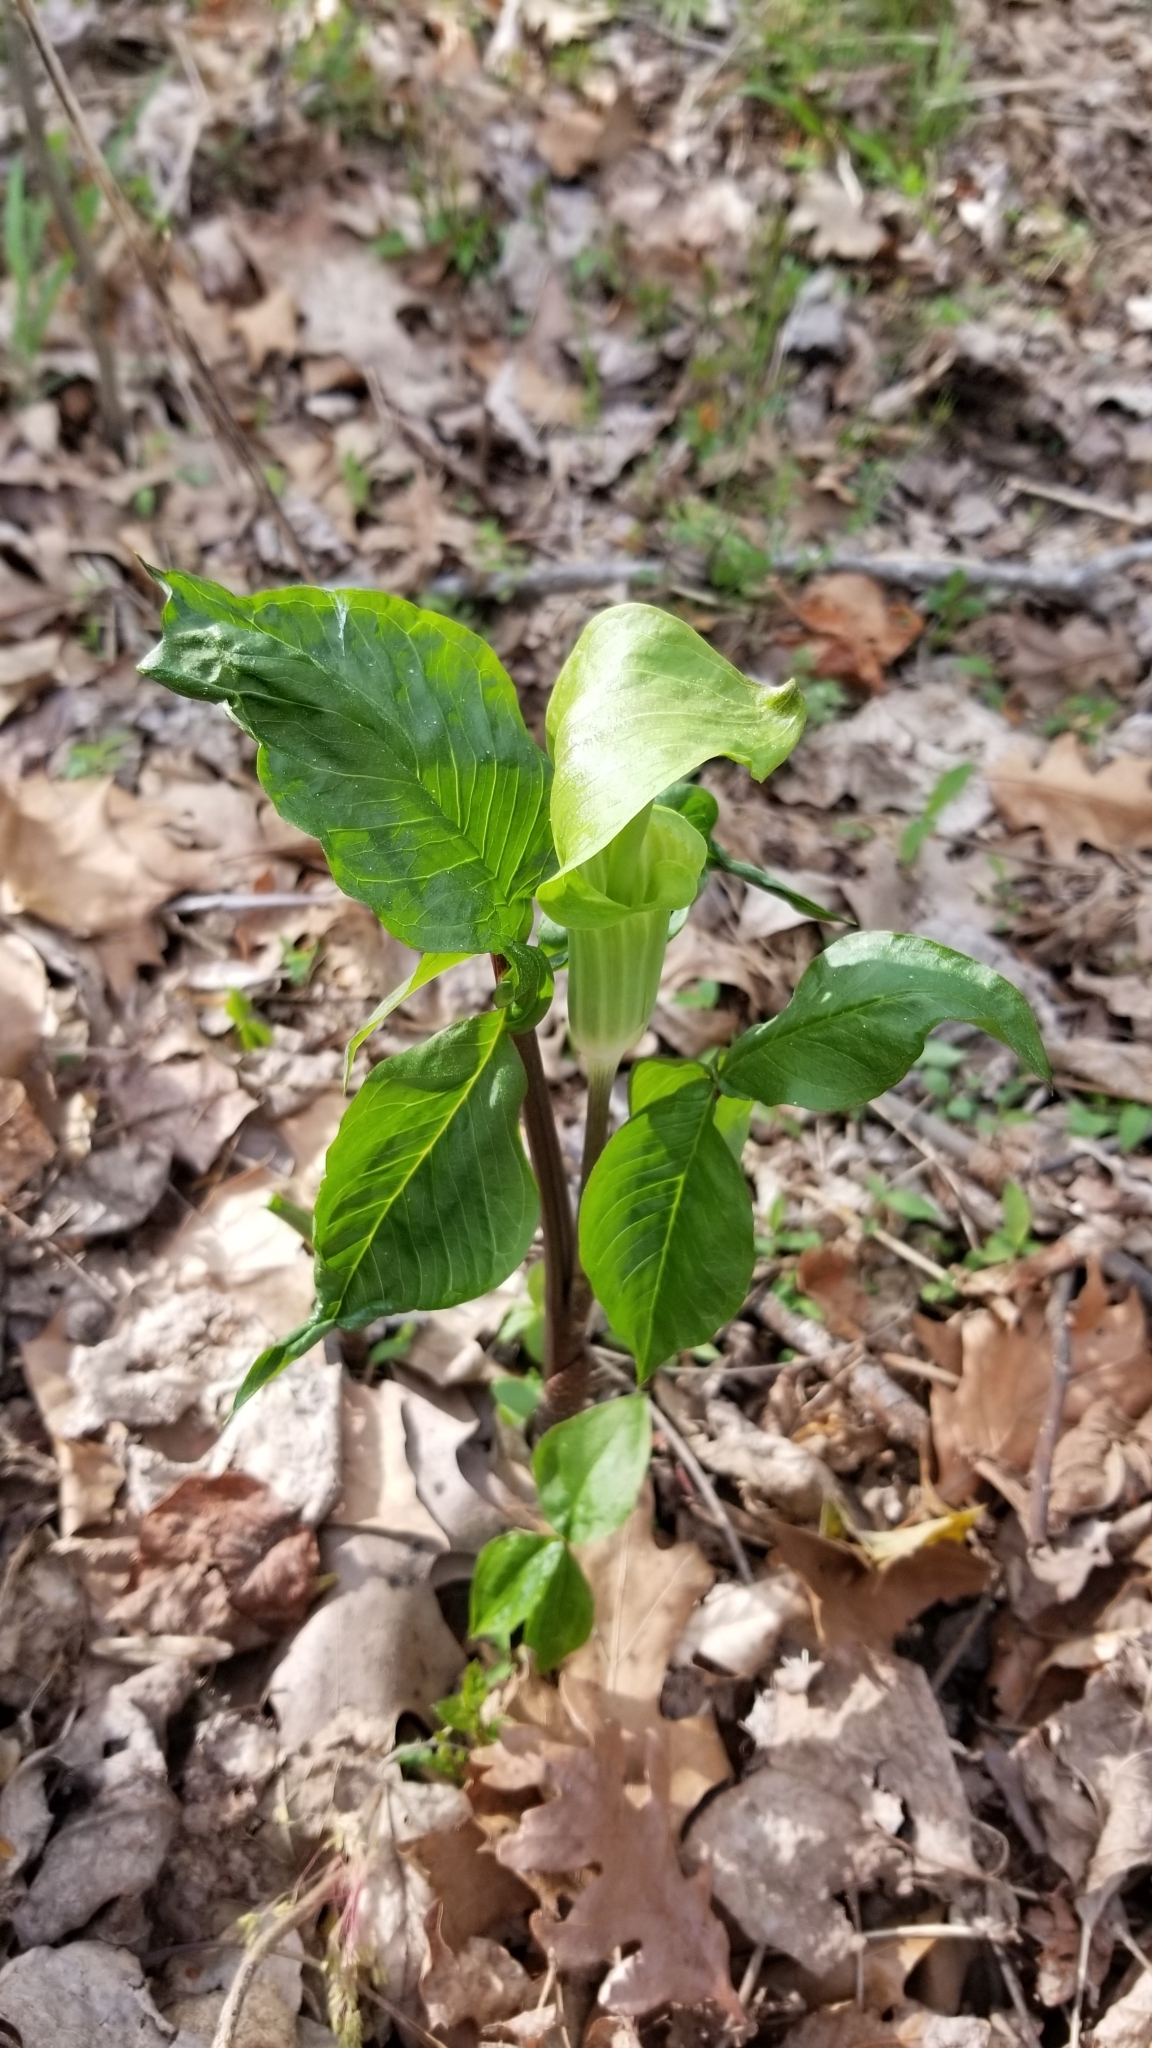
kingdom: Plantae
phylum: Tracheophyta
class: Liliopsida
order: Alismatales
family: Araceae
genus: Arisaema
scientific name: Arisaema triphyllum
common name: Jack-in-the-pulpit
